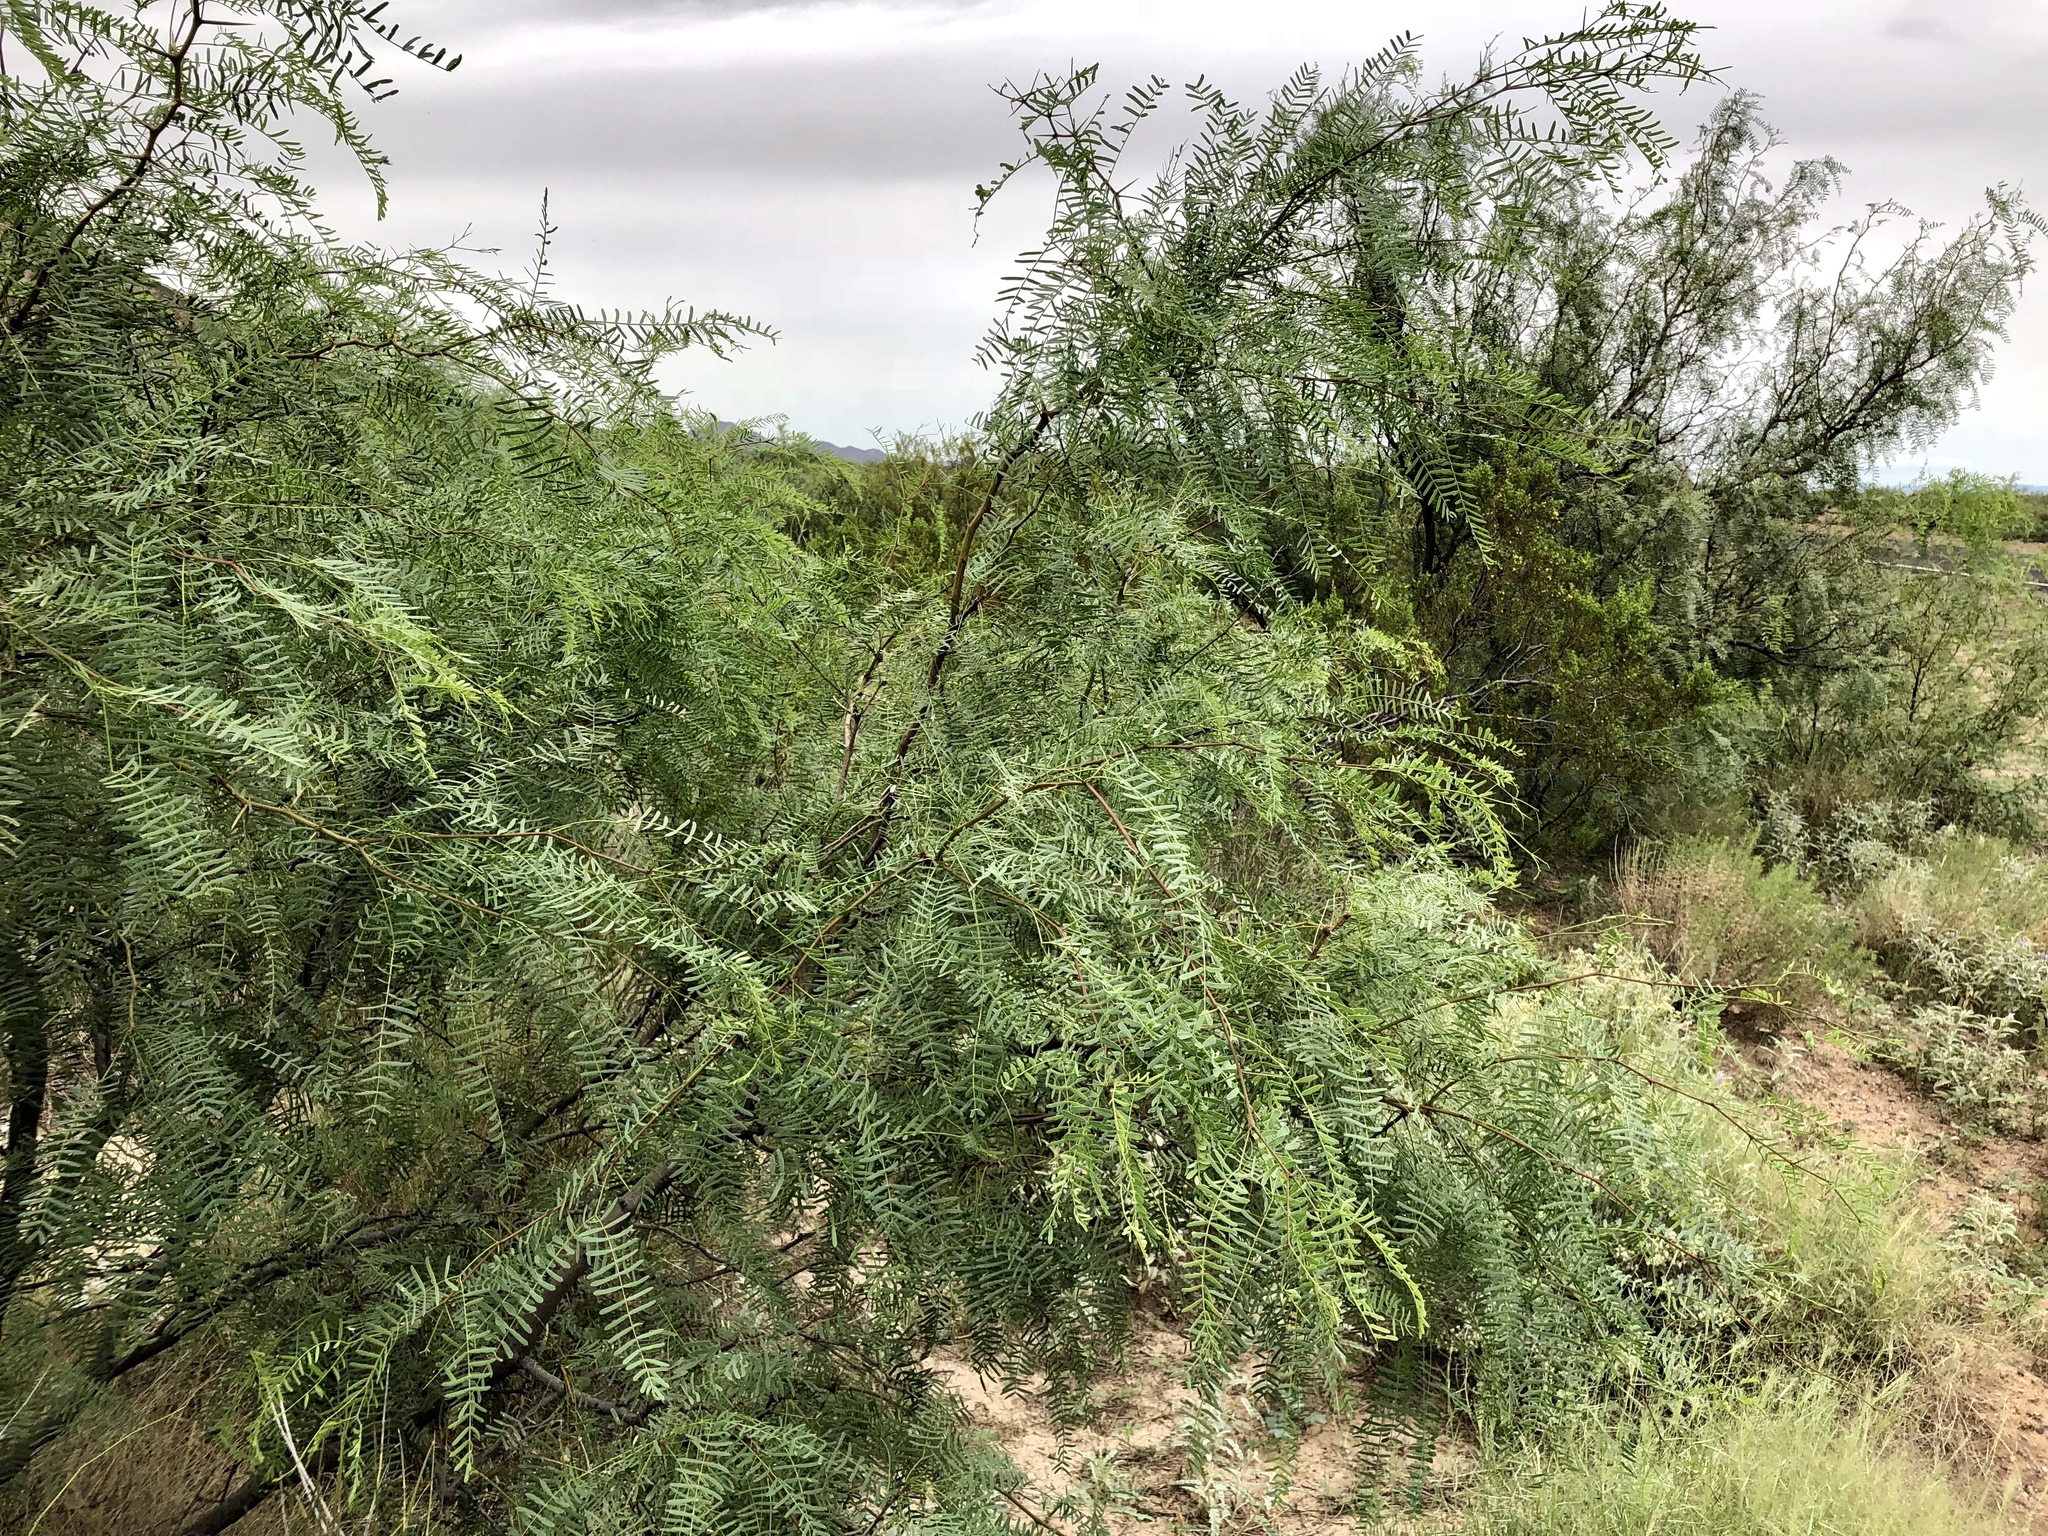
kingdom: Plantae
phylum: Tracheophyta
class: Magnoliopsida
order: Fabales
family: Fabaceae
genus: Prosopis
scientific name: Prosopis glandulosa
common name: Honey mesquite
